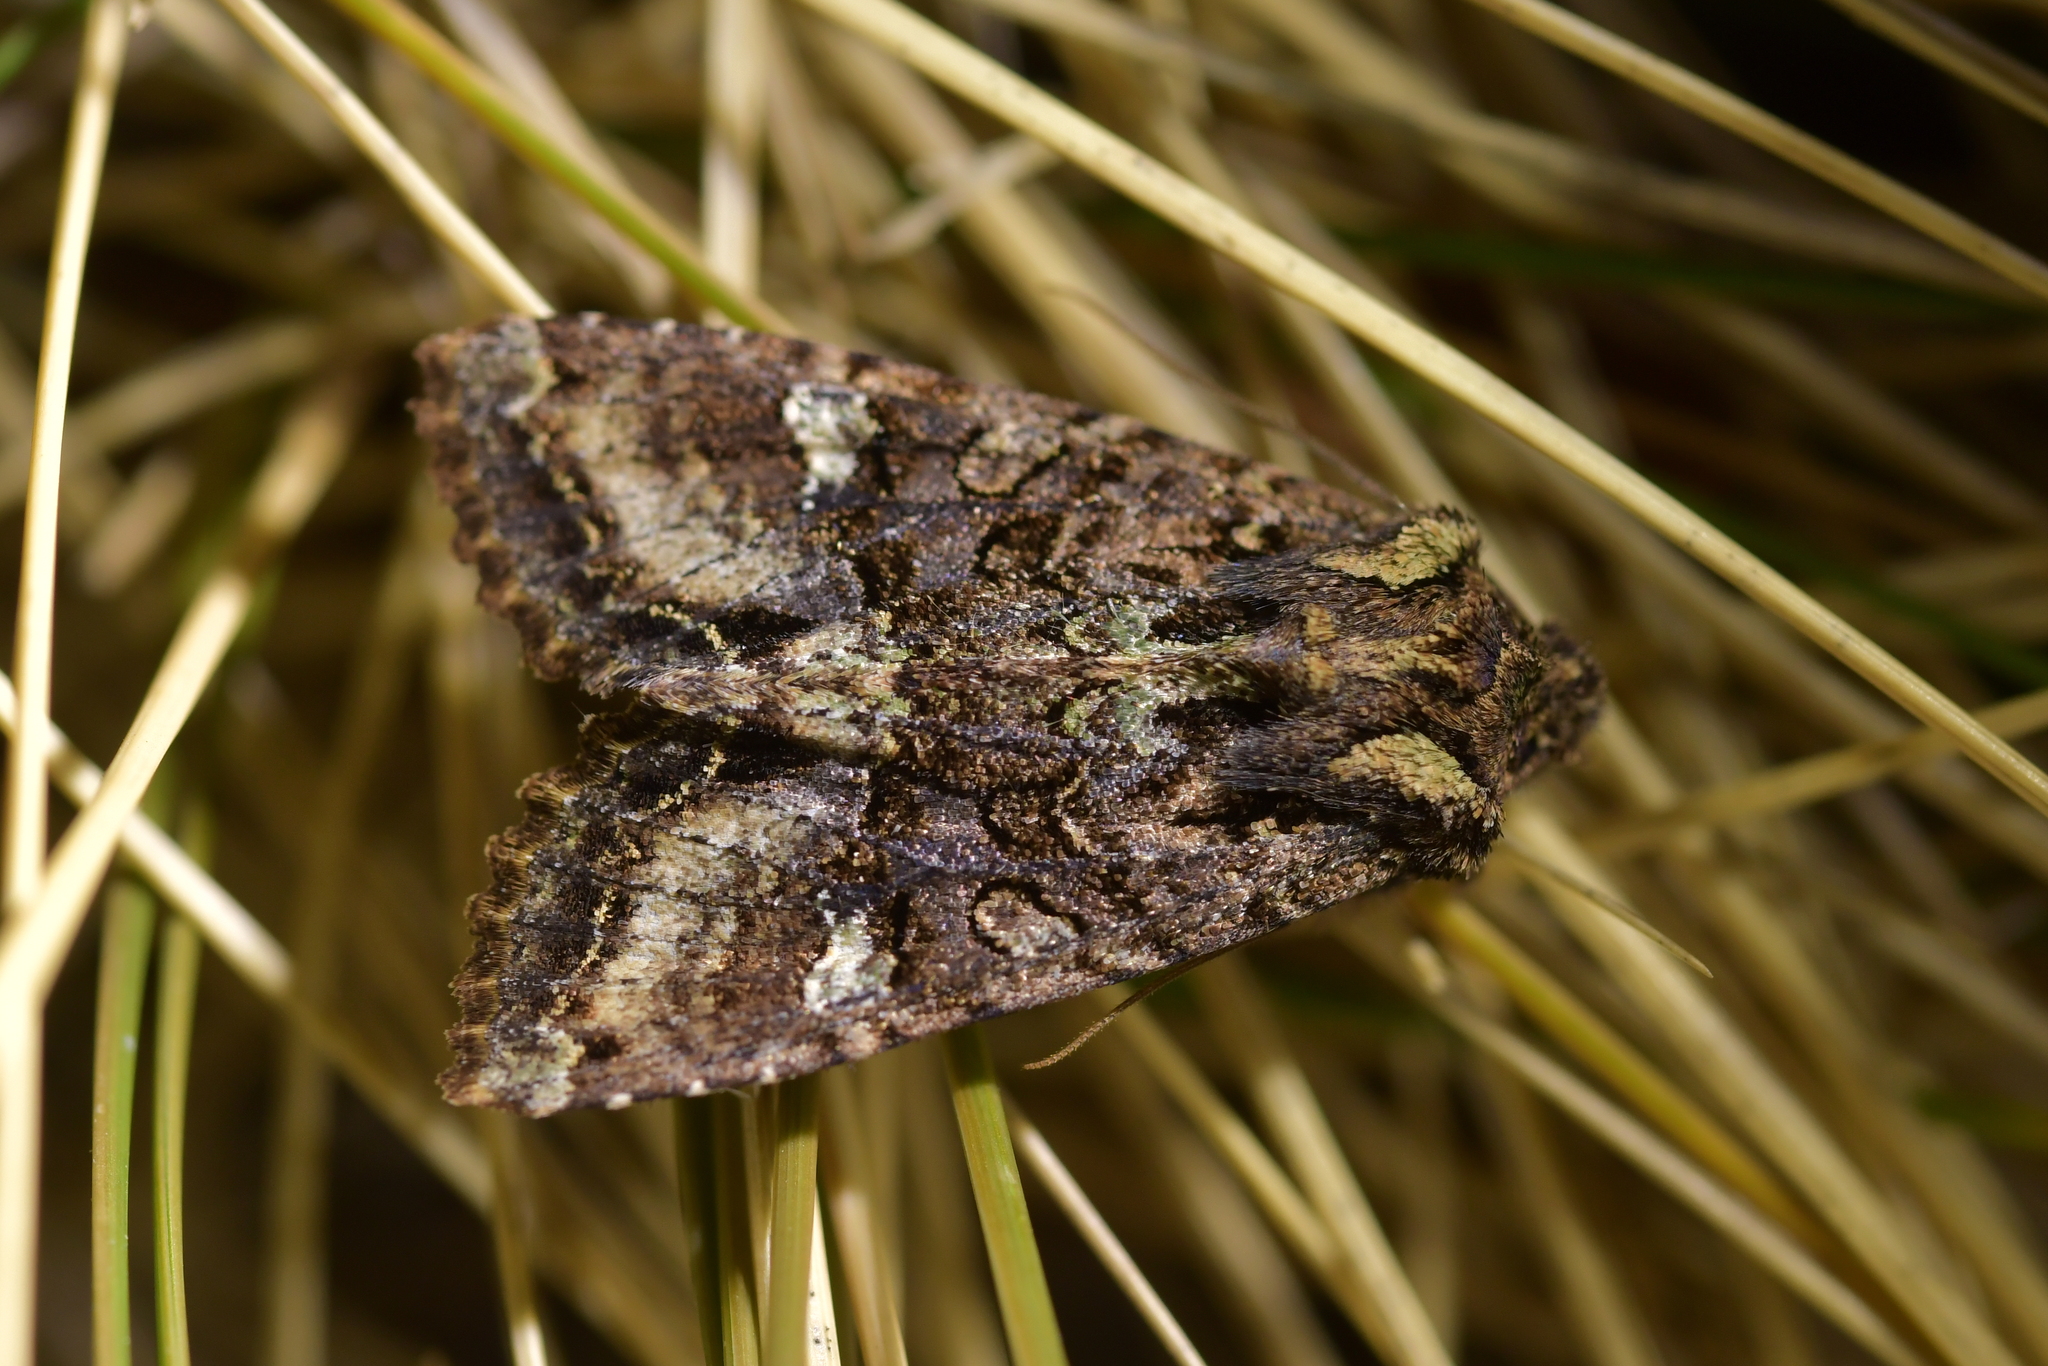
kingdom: Animalia
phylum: Arthropoda
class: Insecta
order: Lepidoptera
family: Noctuidae
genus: Meterana
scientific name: Meterana
